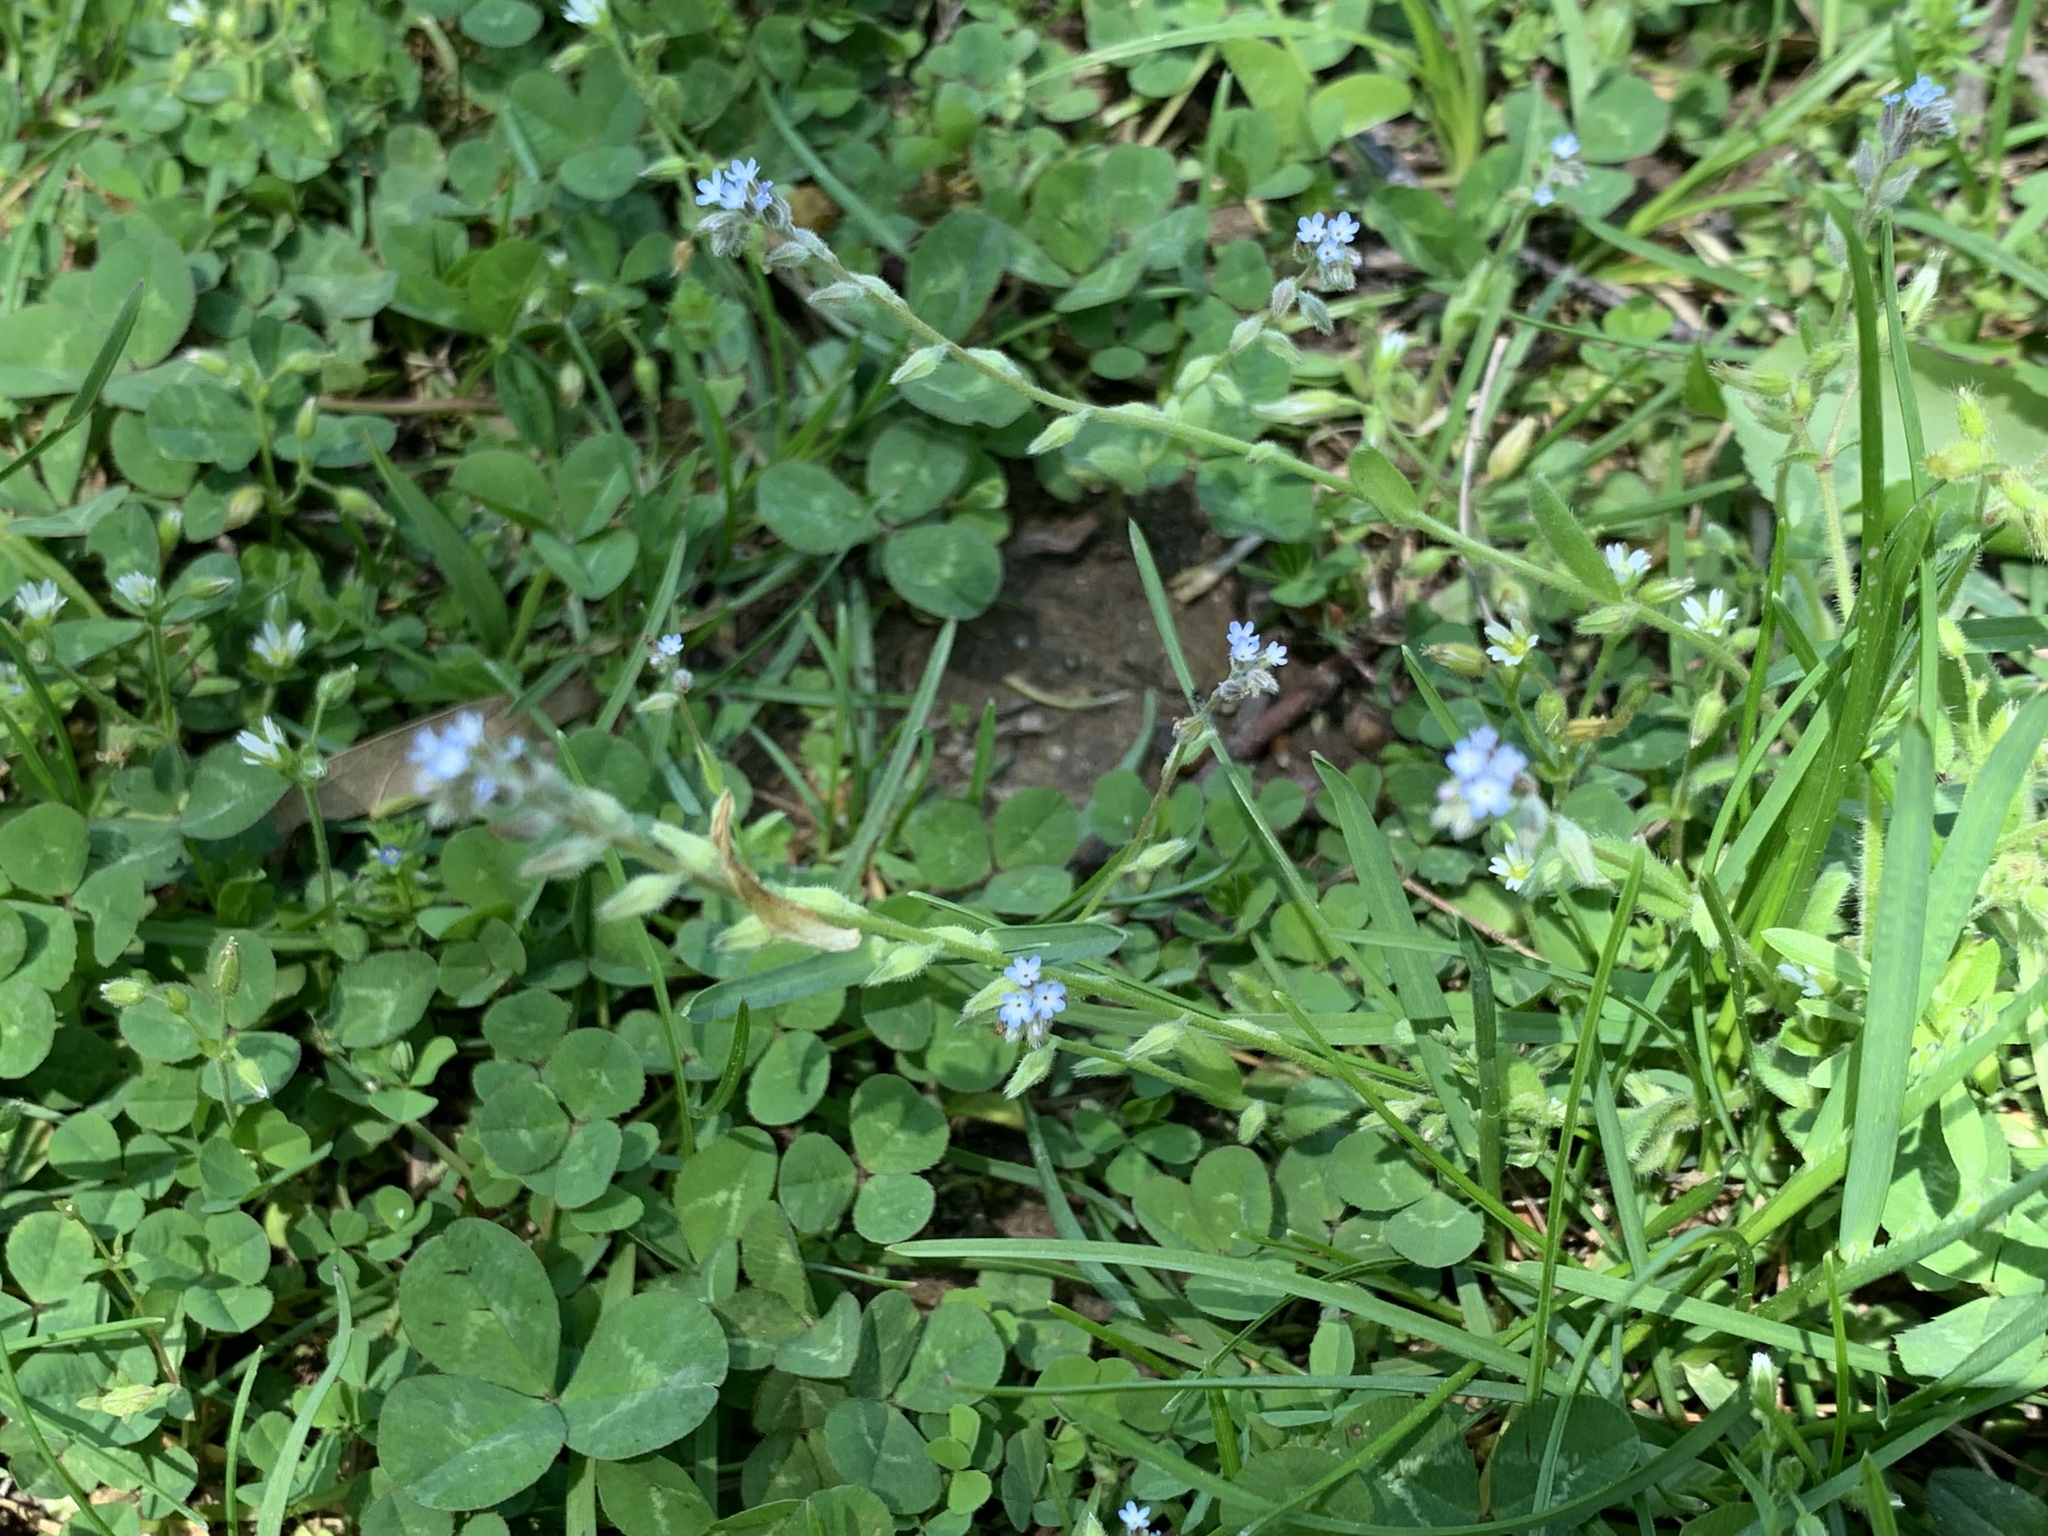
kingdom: Plantae
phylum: Tracheophyta
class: Magnoliopsida
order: Boraginales
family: Boraginaceae
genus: Myosotis
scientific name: Myosotis stricta
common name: Strict forget-me-not
